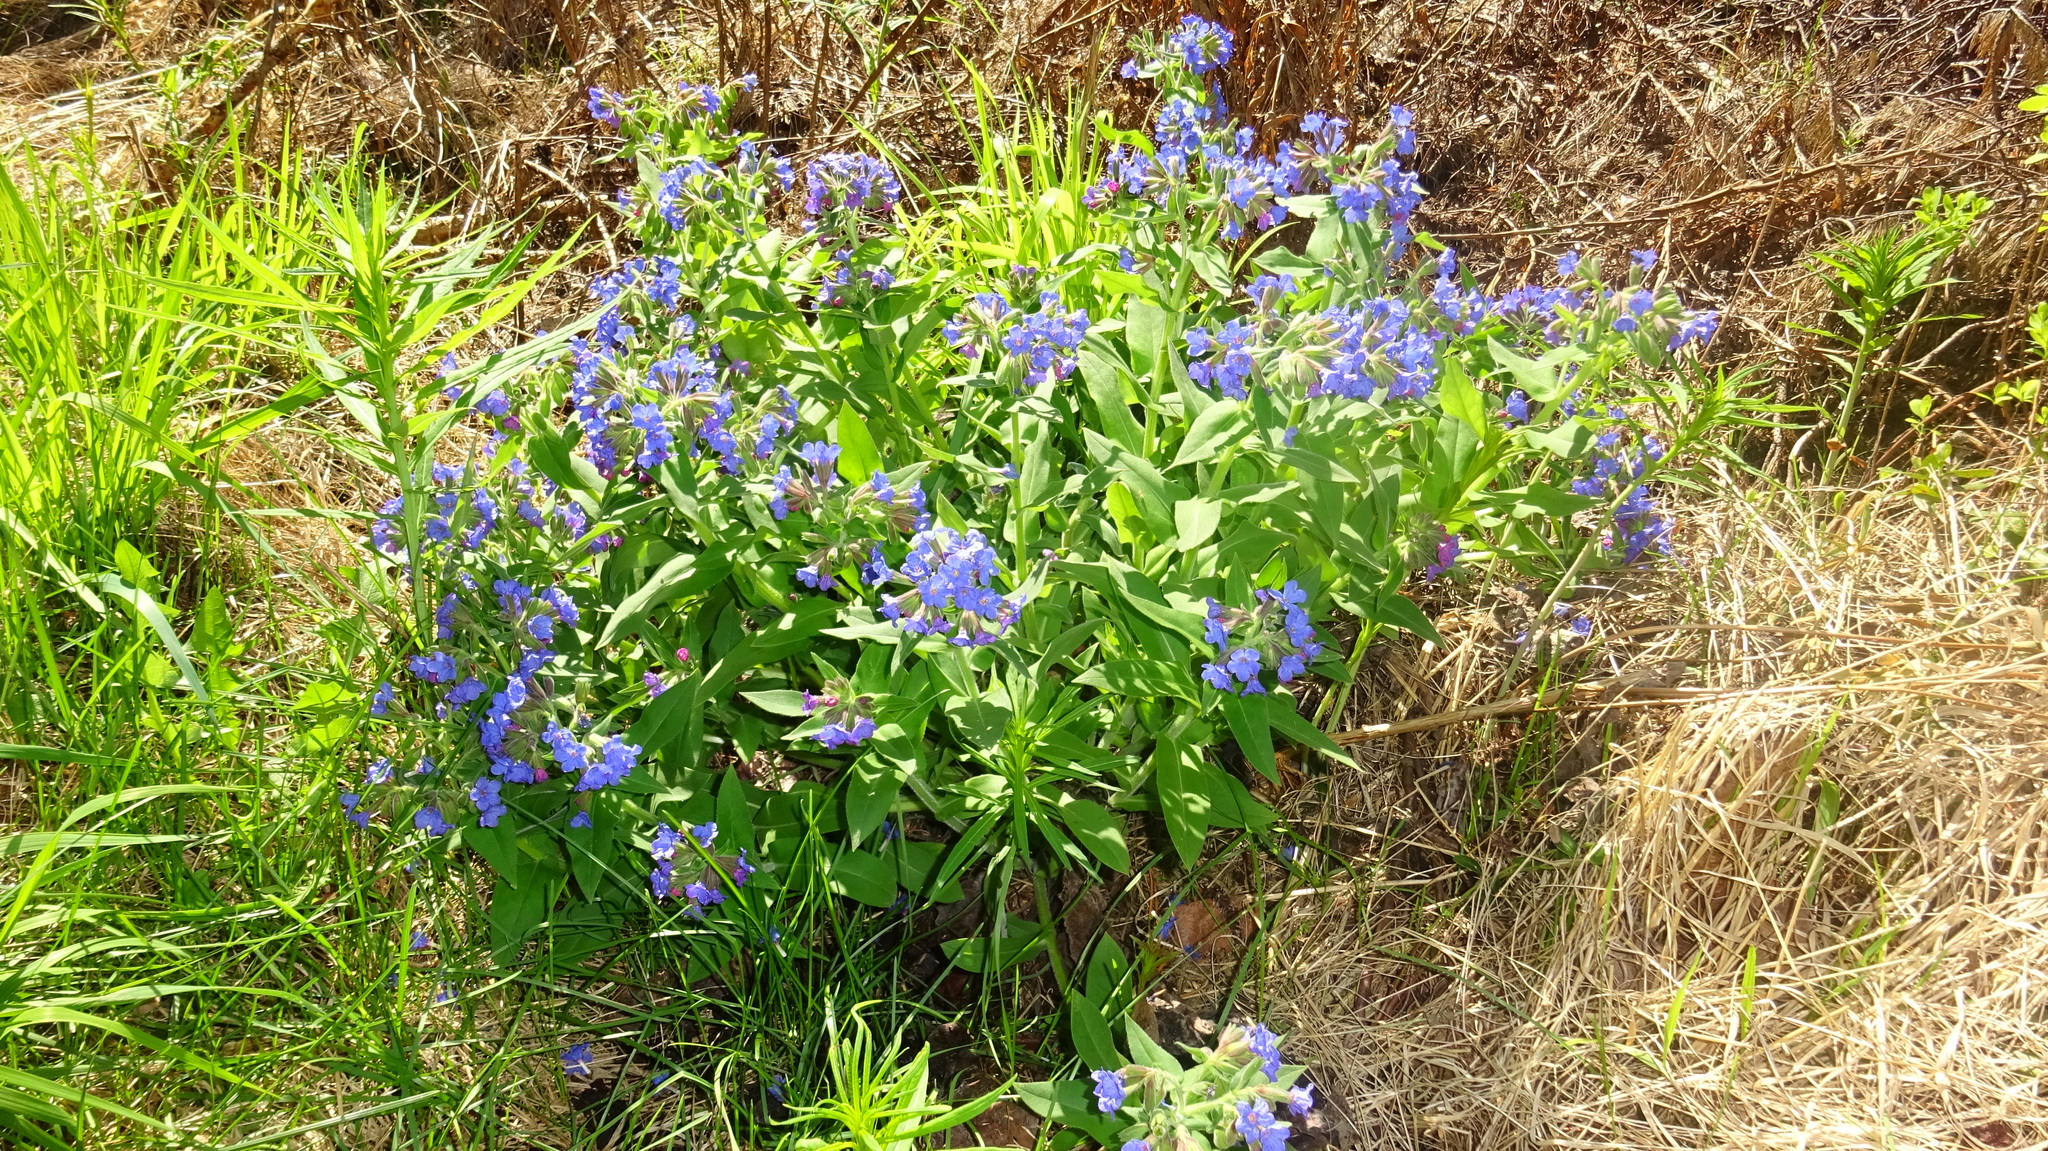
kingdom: Plantae
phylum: Tracheophyta
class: Magnoliopsida
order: Boraginales
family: Boraginaceae
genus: Pulmonaria
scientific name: Pulmonaria mollis
